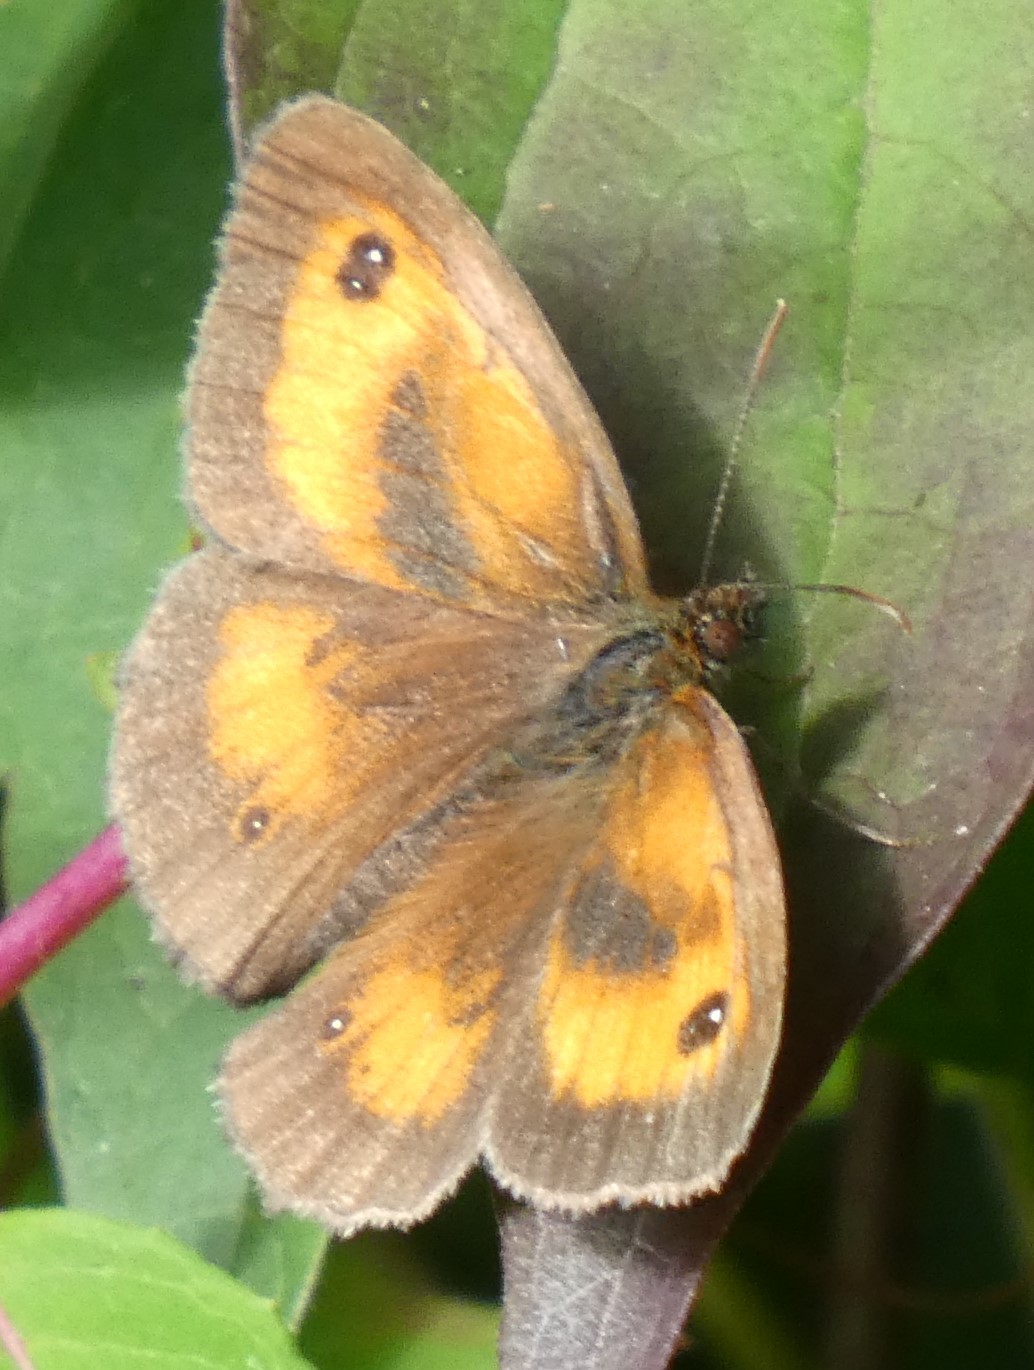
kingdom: Animalia
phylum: Arthropoda
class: Insecta
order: Lepidoptera
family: Nymphalidae
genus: Pyronia
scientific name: Pyronia tithonus
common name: Gatekeeper
